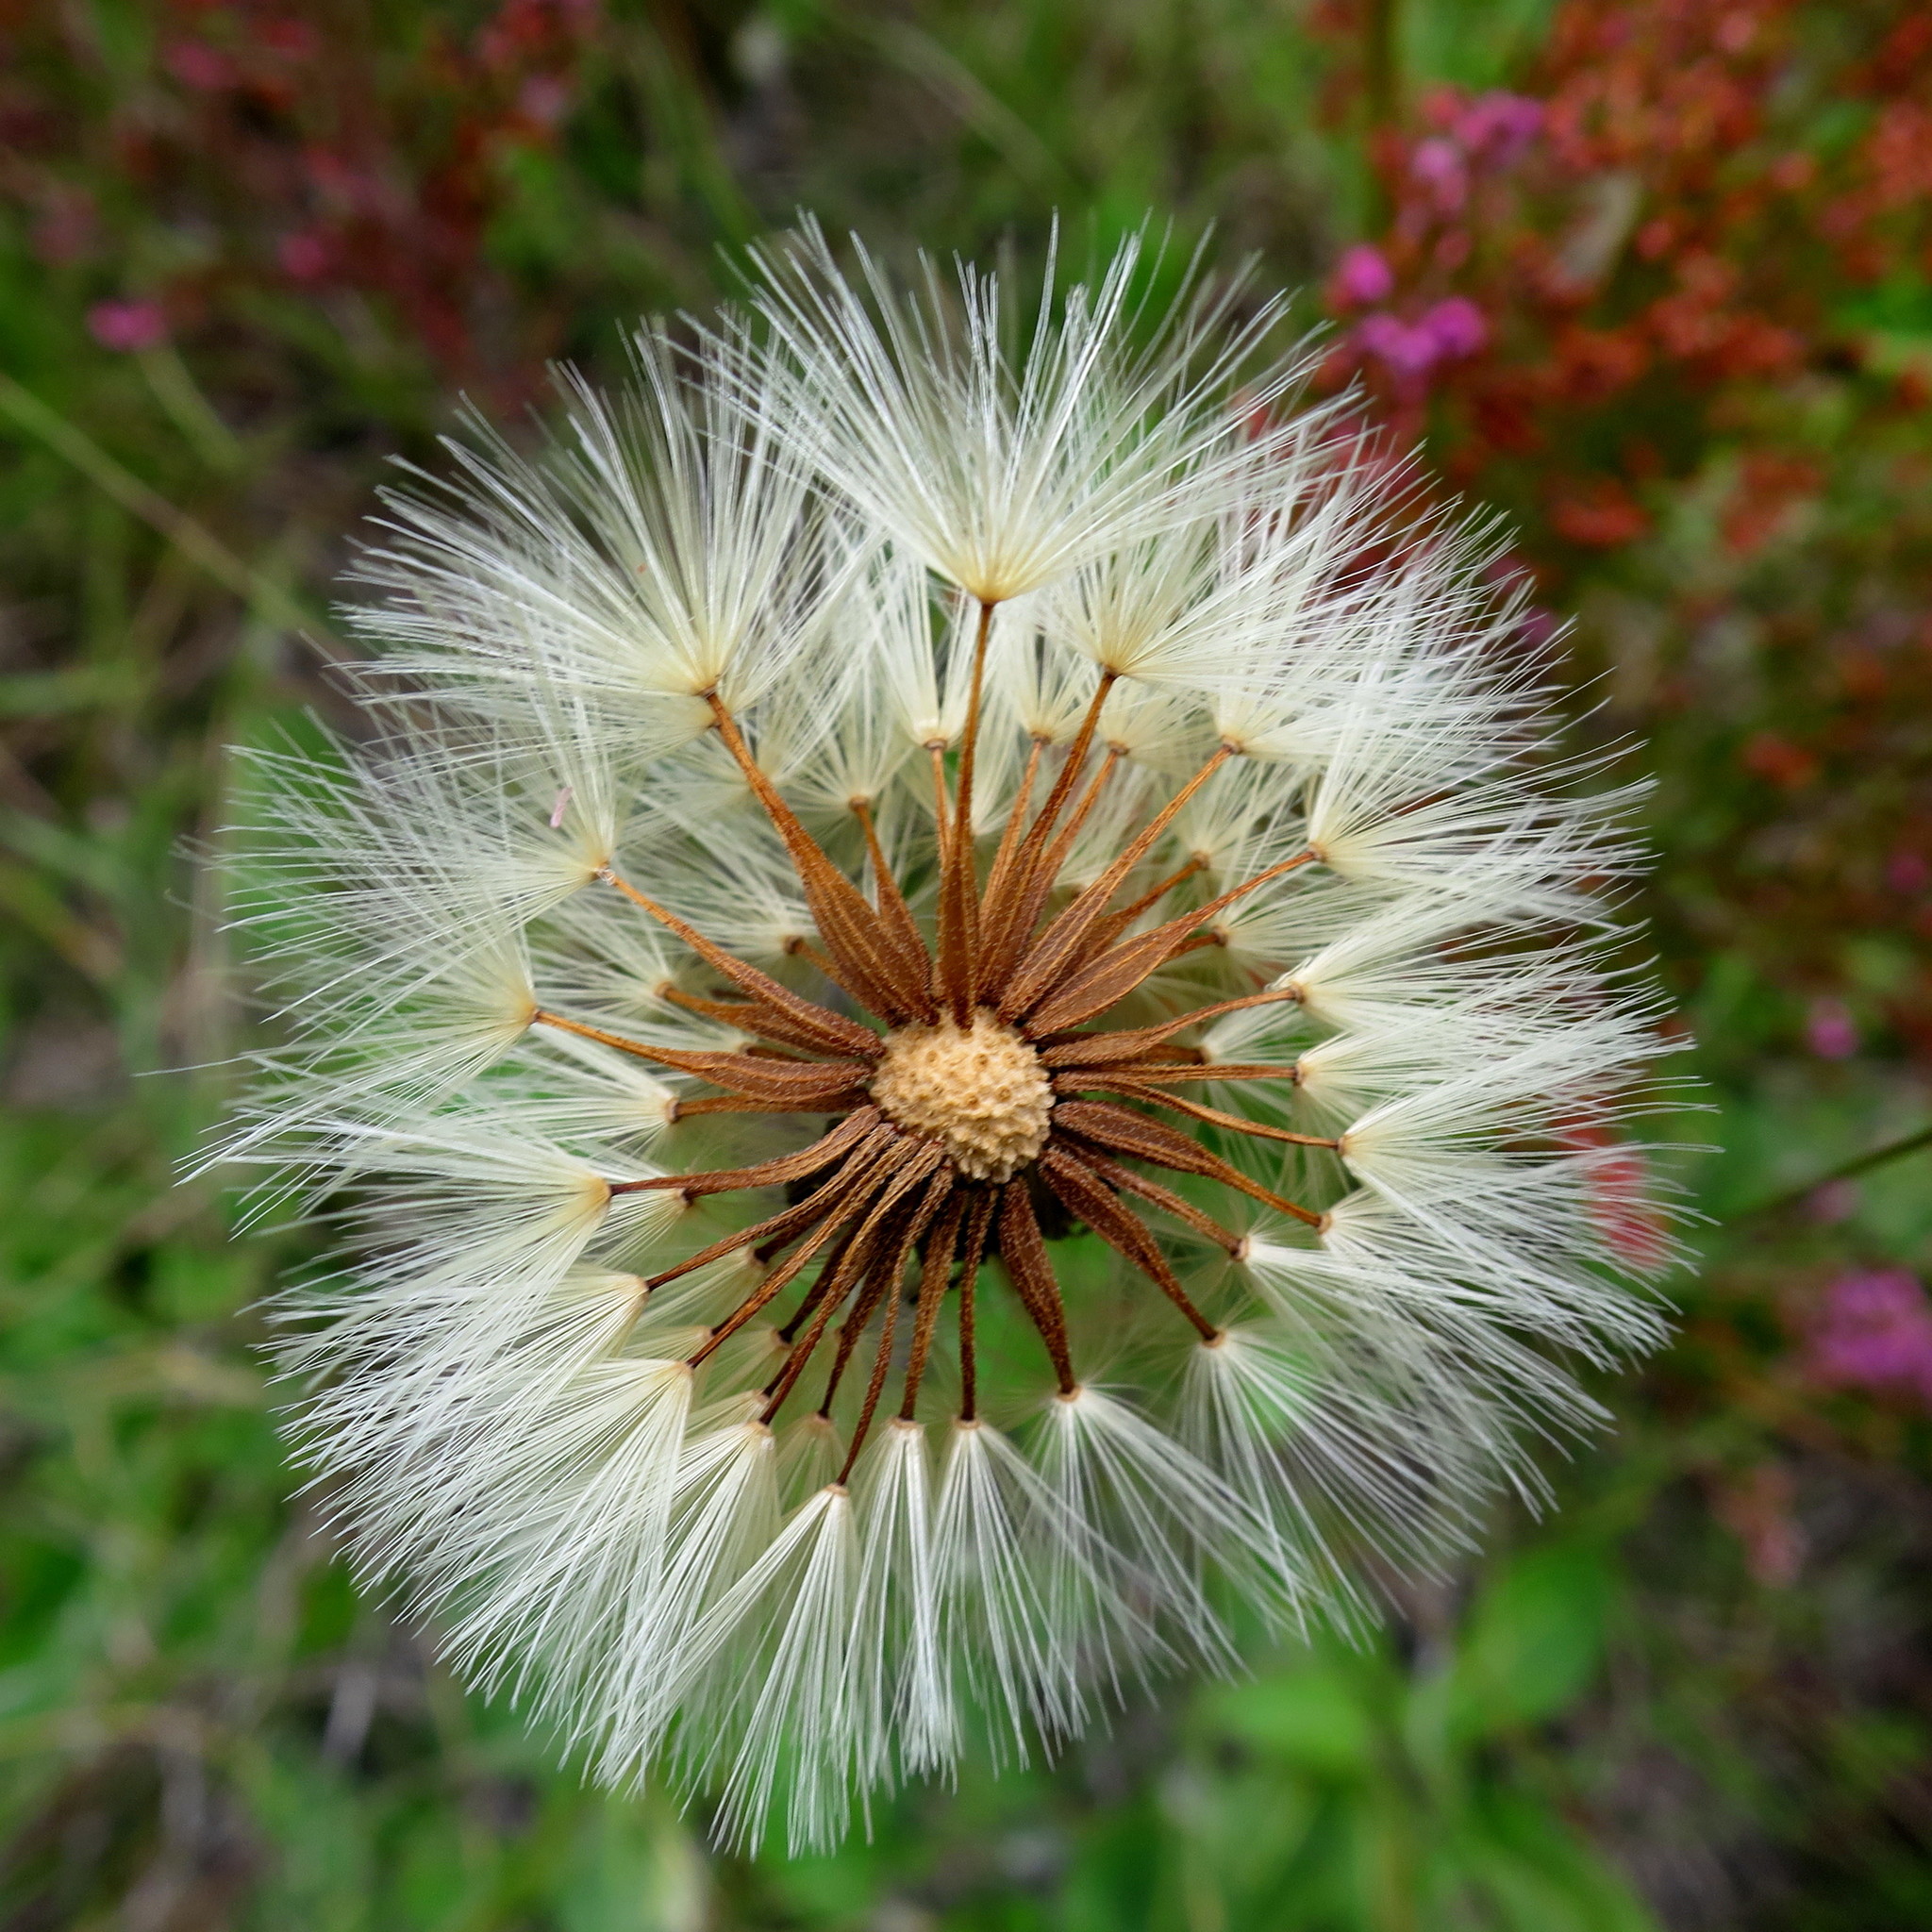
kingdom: Plantae
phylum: Tracheophyta
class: Magnoliopsida
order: Asterales
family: Asteraceae
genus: Piloselloides
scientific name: Piloselloides hirsuta
